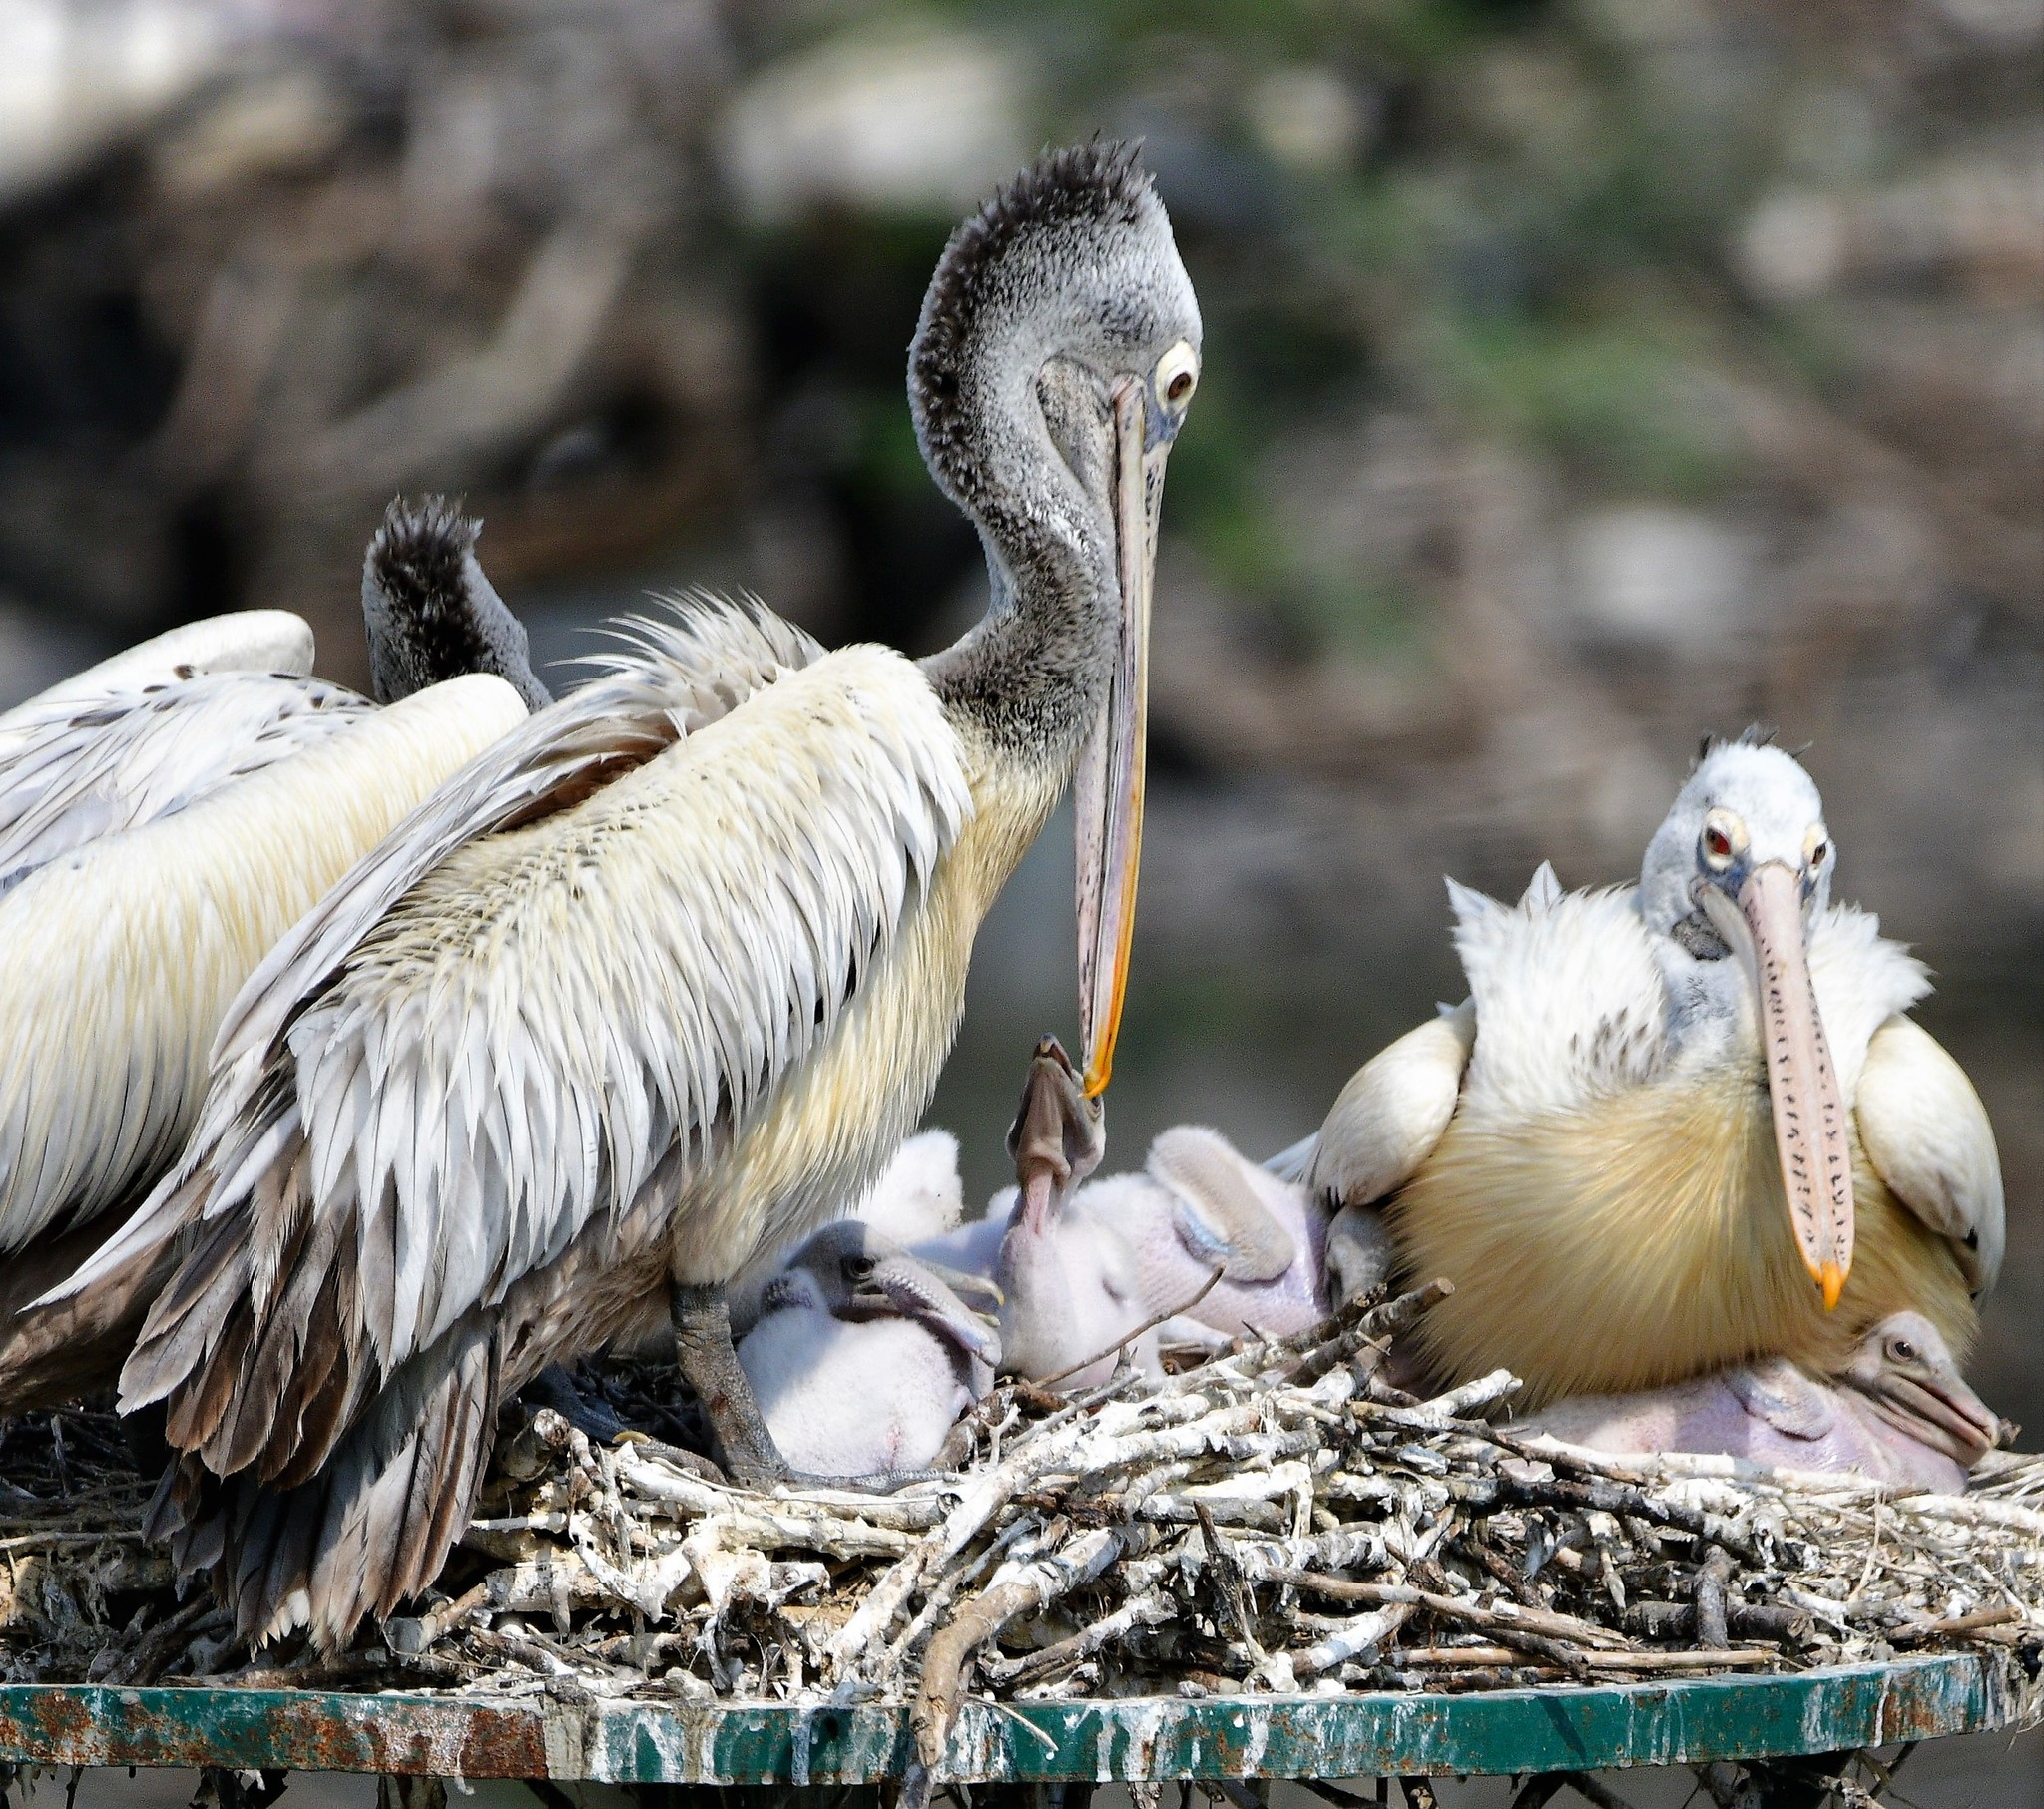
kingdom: Animalia
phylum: Chordata
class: Aves
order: Pelecaniformes
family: Pelecanidae
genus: Pelecanus
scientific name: Pelecanus philippensis
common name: Spot-billed pelican
